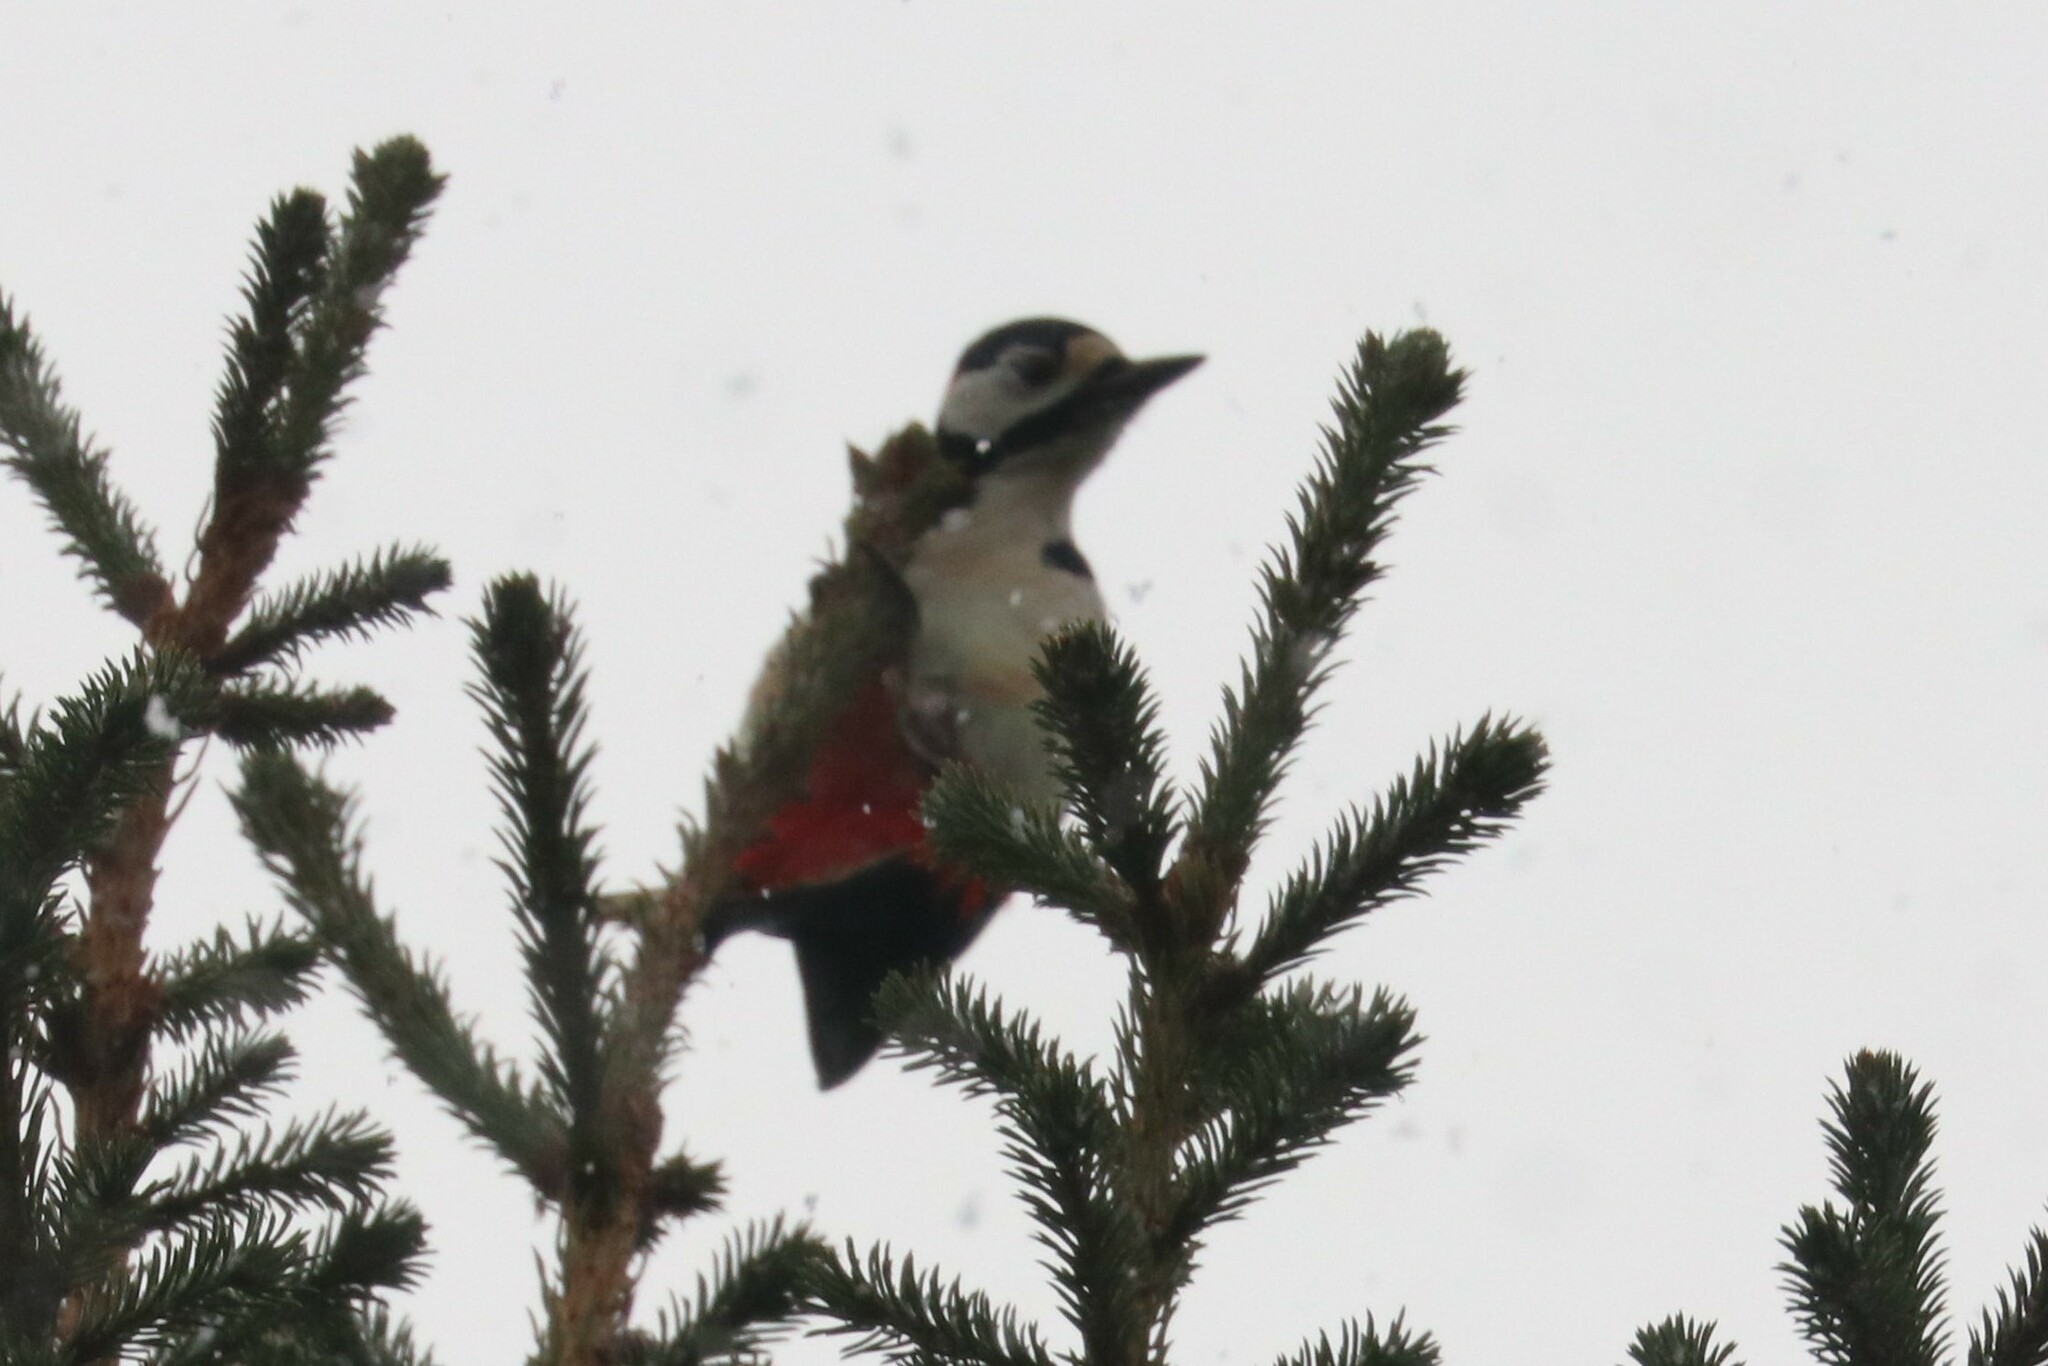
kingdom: Animalia
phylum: Chordata
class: Aves
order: Piciformes
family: Picidae
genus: Dendrocopos
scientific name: Dendrocopos major
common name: Great spotted woodpecker
